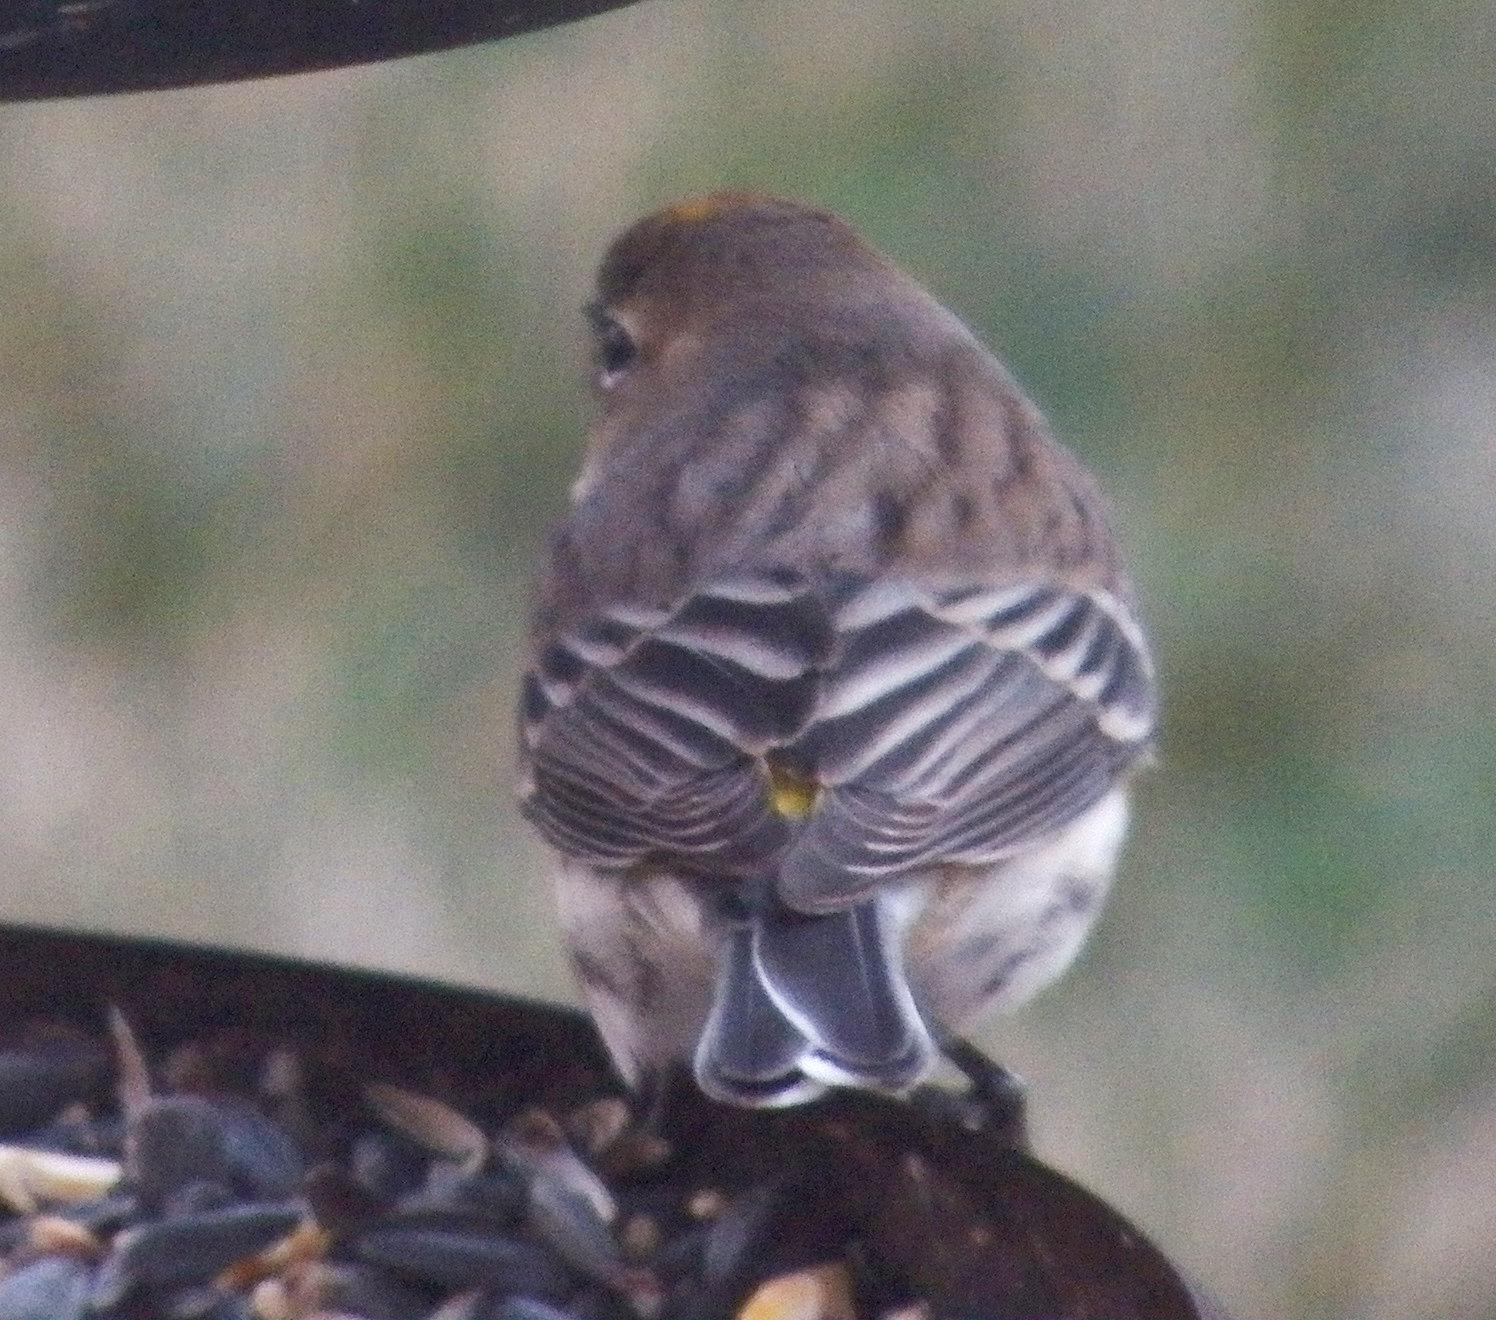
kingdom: Animalia
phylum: Chordata
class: Aves
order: Passeriformes
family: Parulidae
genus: Setophaga
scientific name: Setophaga coronata
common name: Myrtle warbler
